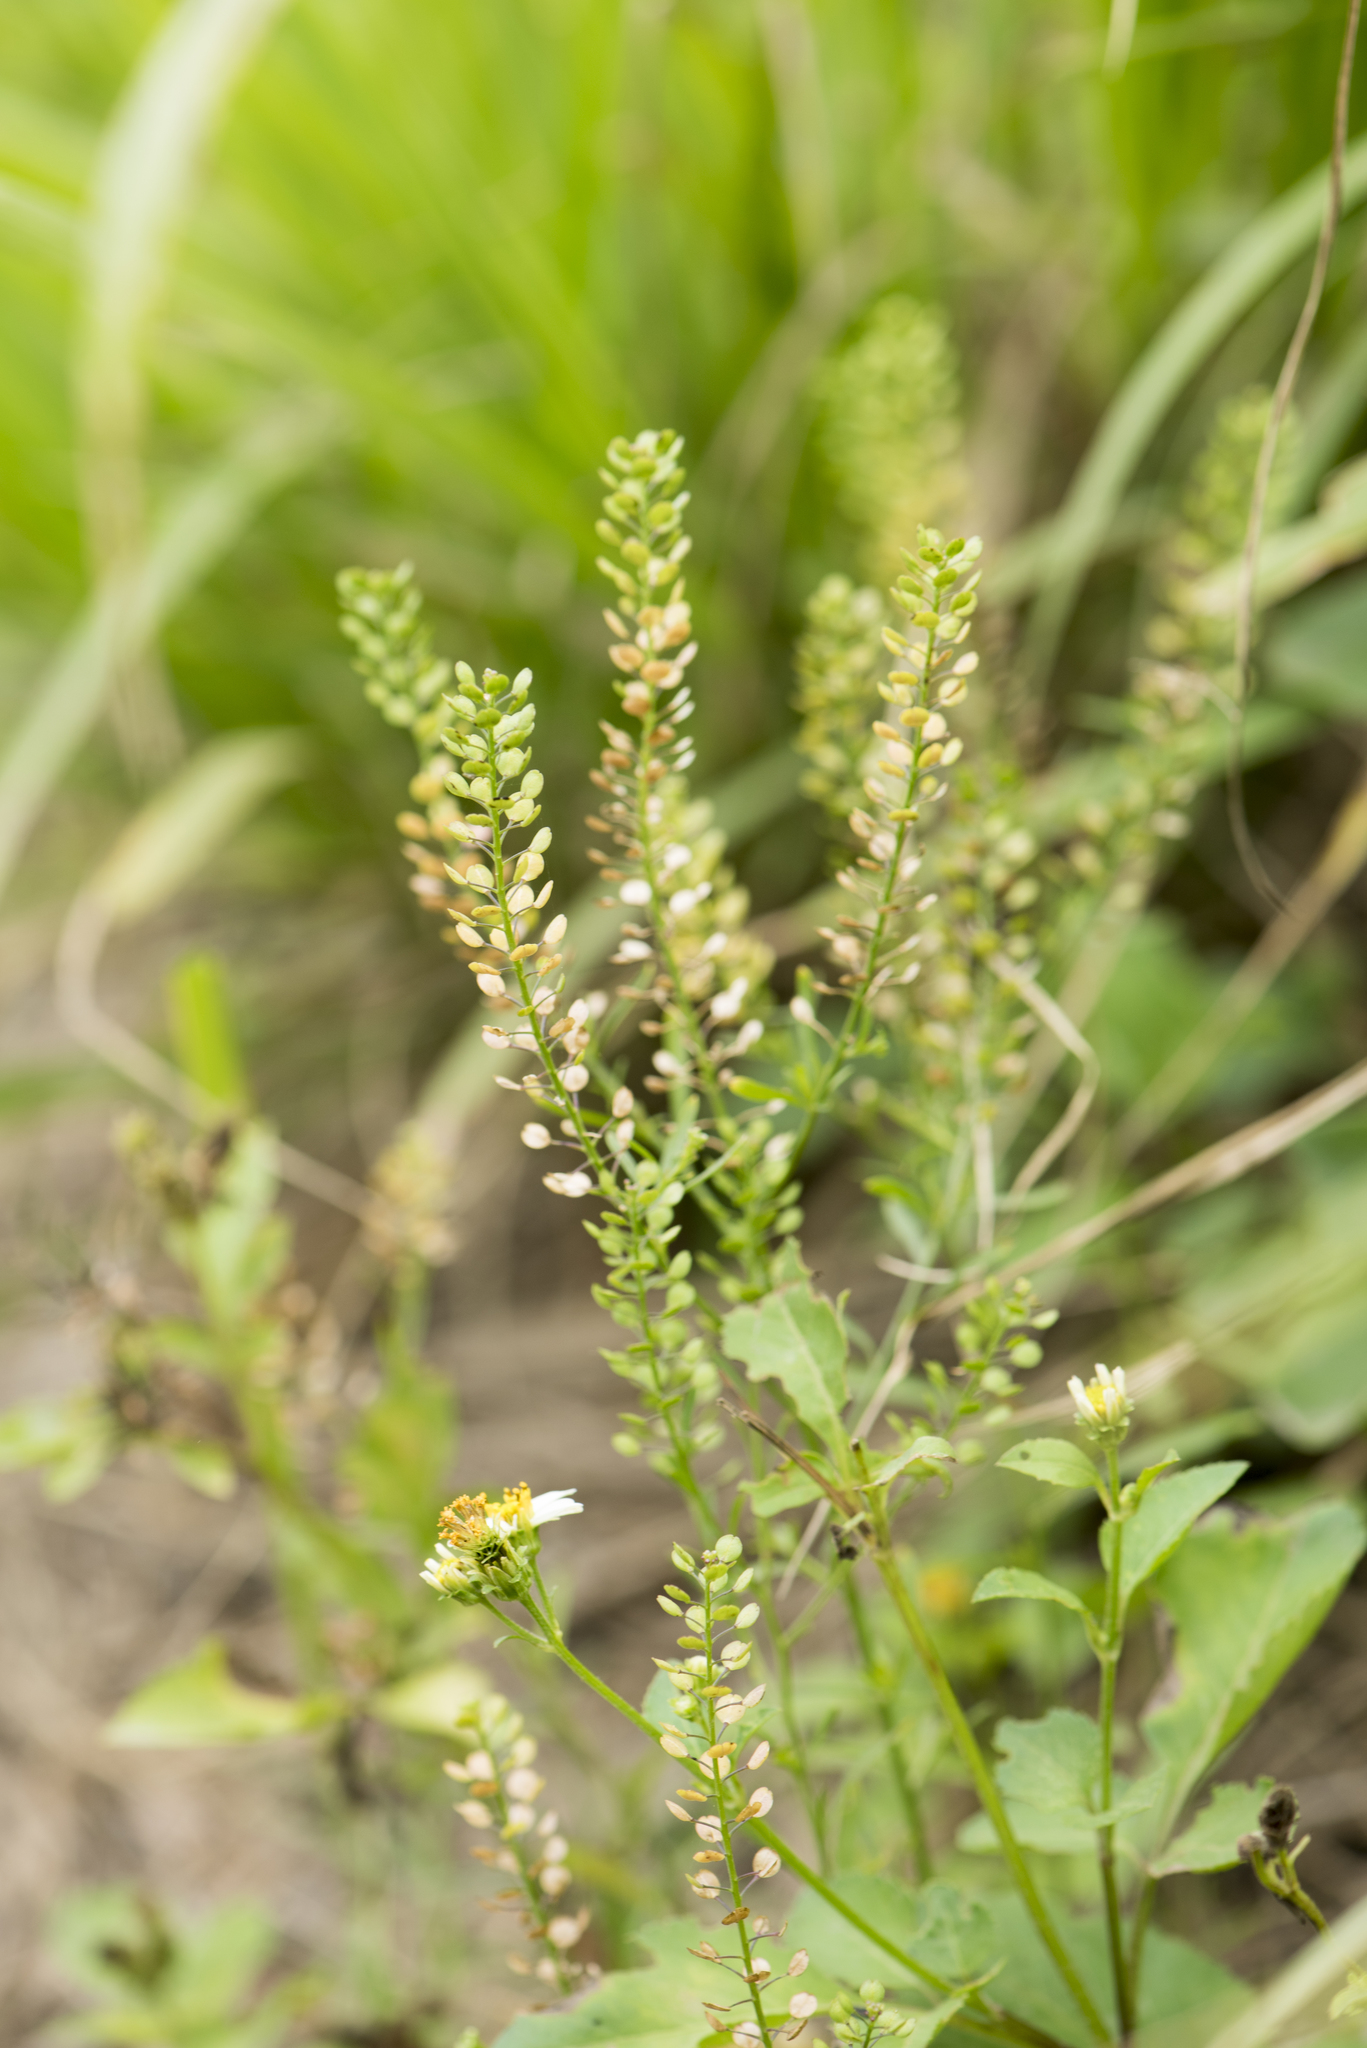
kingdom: Plantae
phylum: Tracheophyta
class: Magnoliopsida
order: Brassicales
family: Brassicaceae
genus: Lepidium
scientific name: Lepidium virginicum
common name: Least pepperwort
